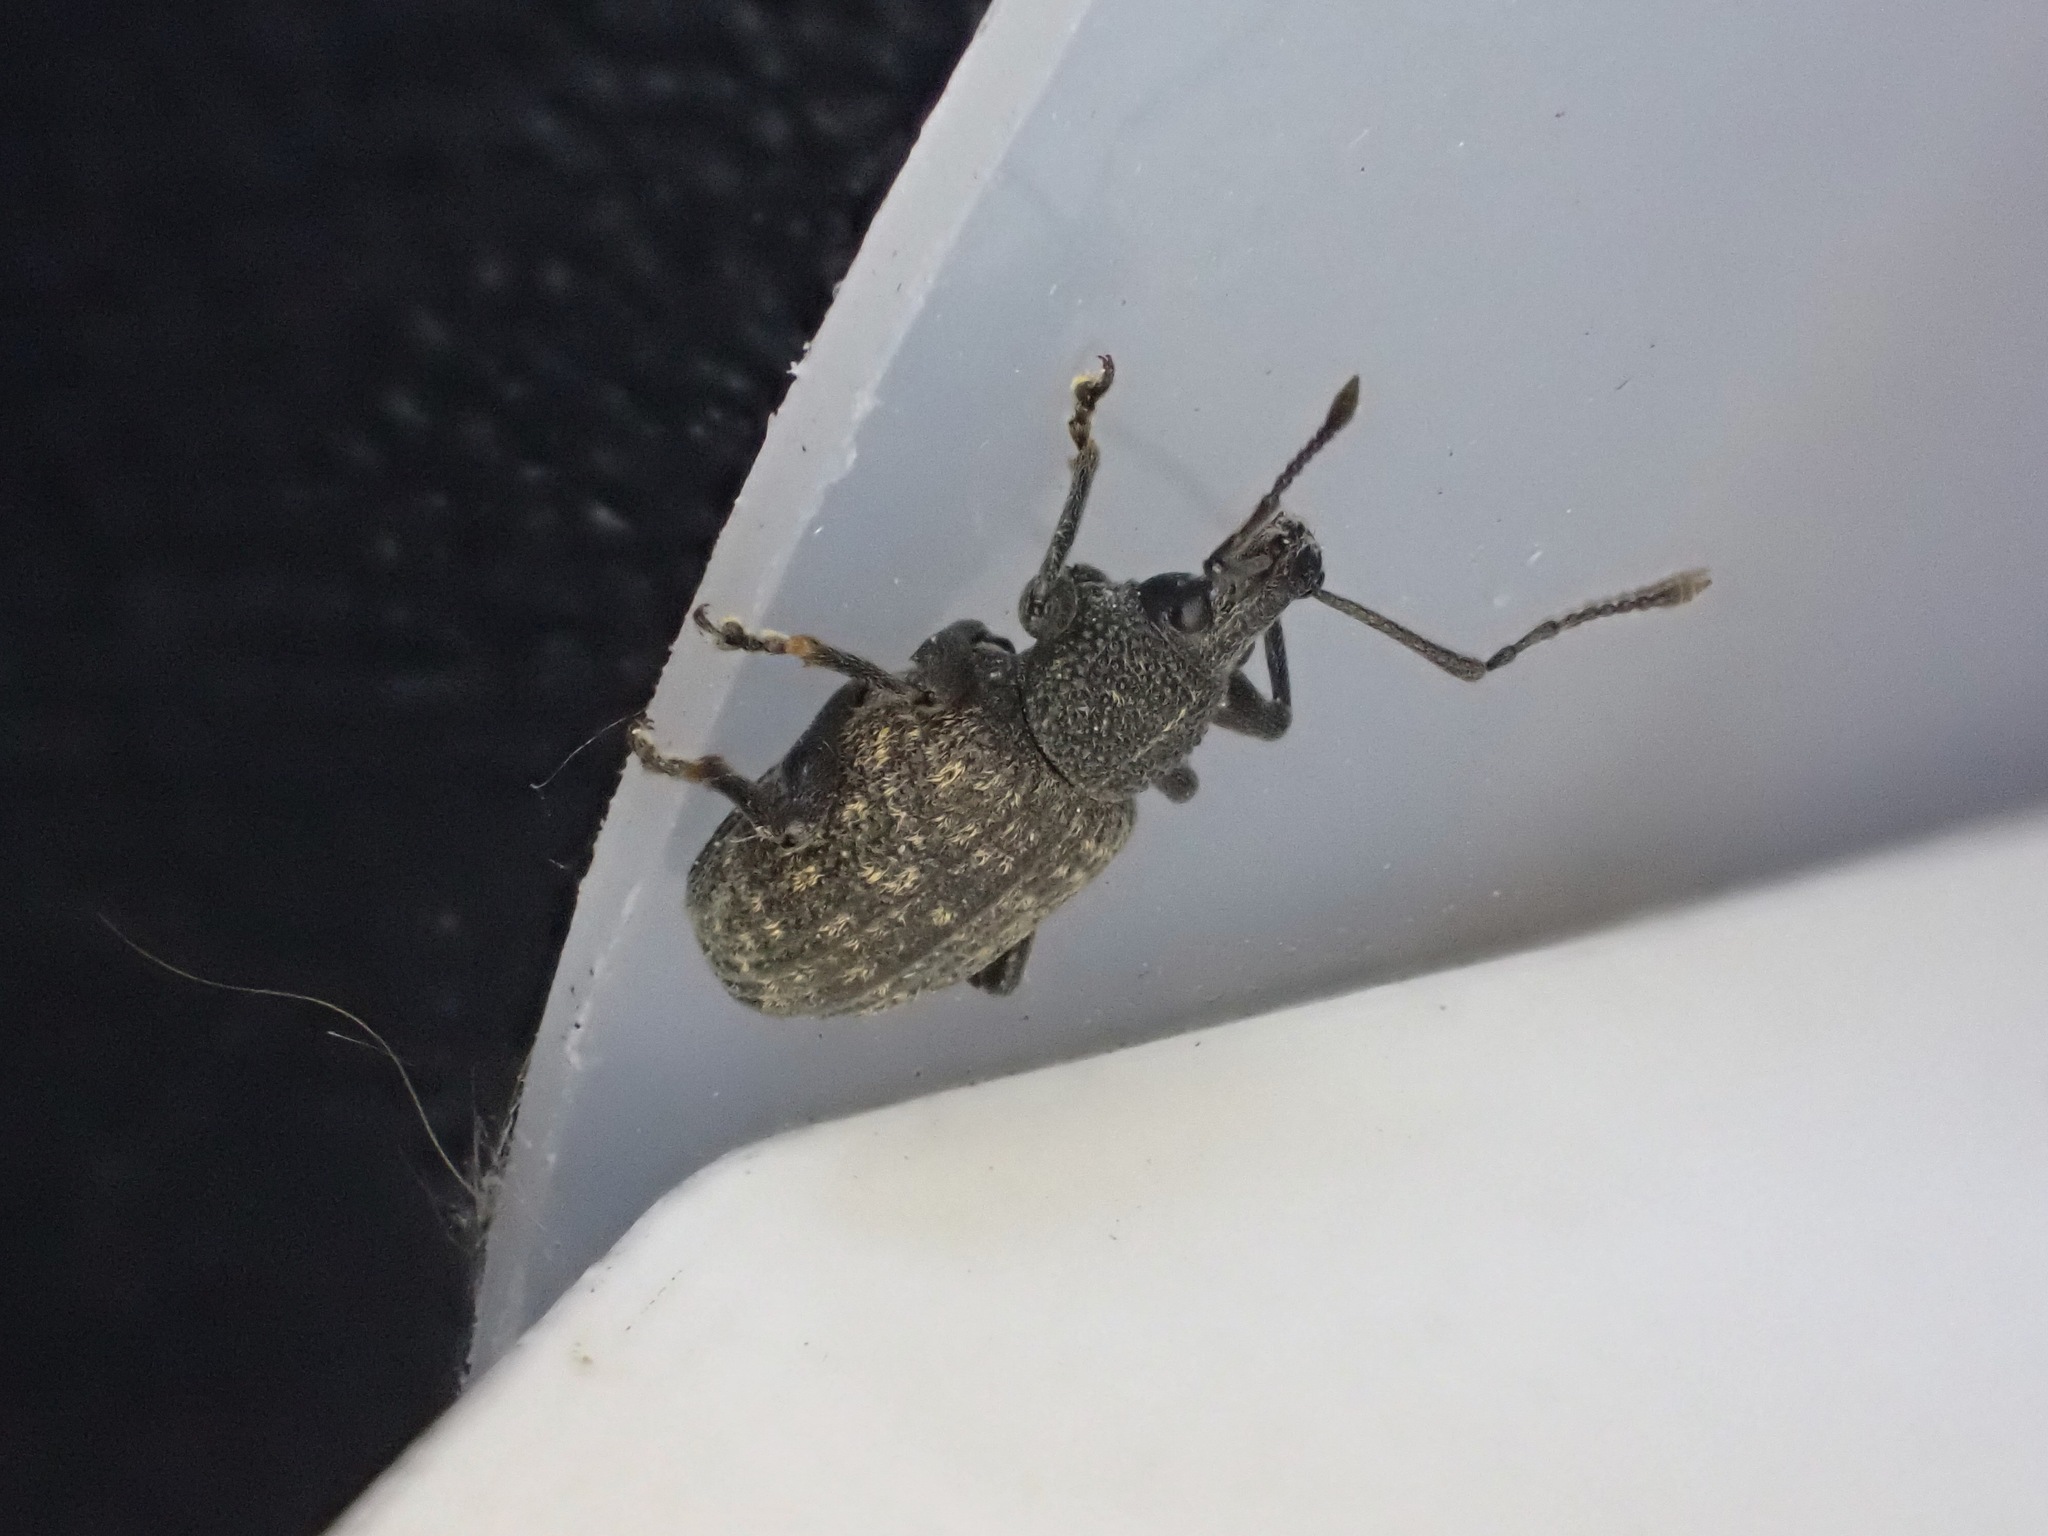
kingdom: Animalia
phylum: Arthropoda
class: Insecta
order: Coleoptera
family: Curculionidae
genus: Otiorhynchus
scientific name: Otiorhynchus sulcatus
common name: Black vine weevil
